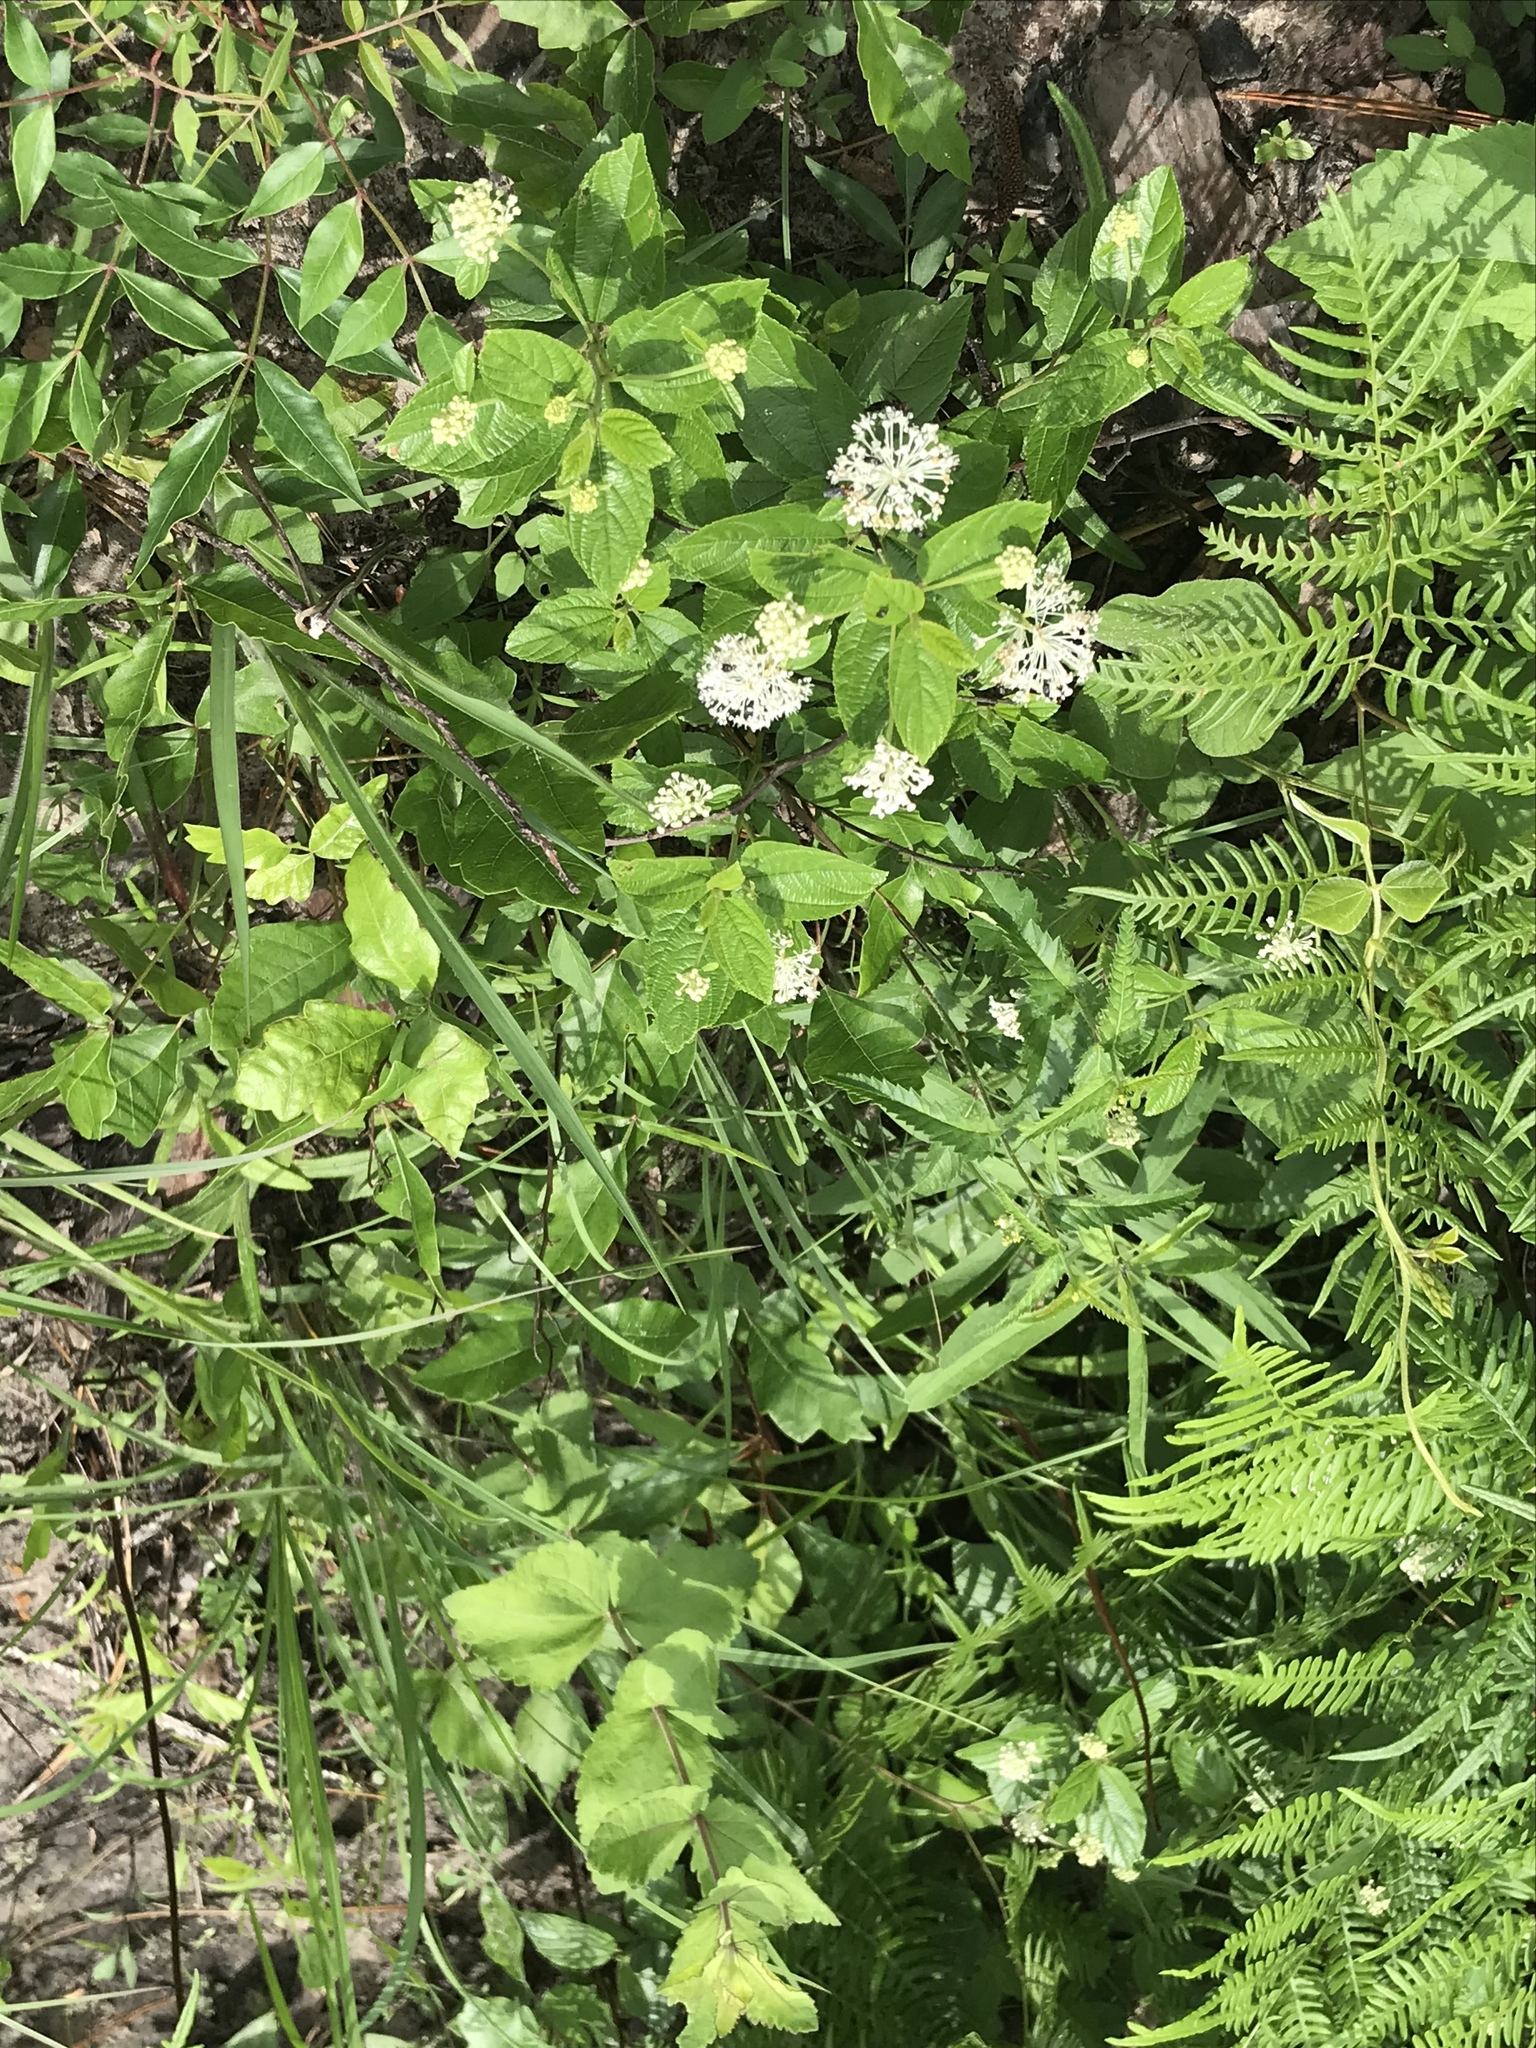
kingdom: Plantae
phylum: Tracheophyta
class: Magnoliopsida
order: Rosales
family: Rhamnaceae
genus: Ceanothus
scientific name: Ceanothus americanus
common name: Redroot
